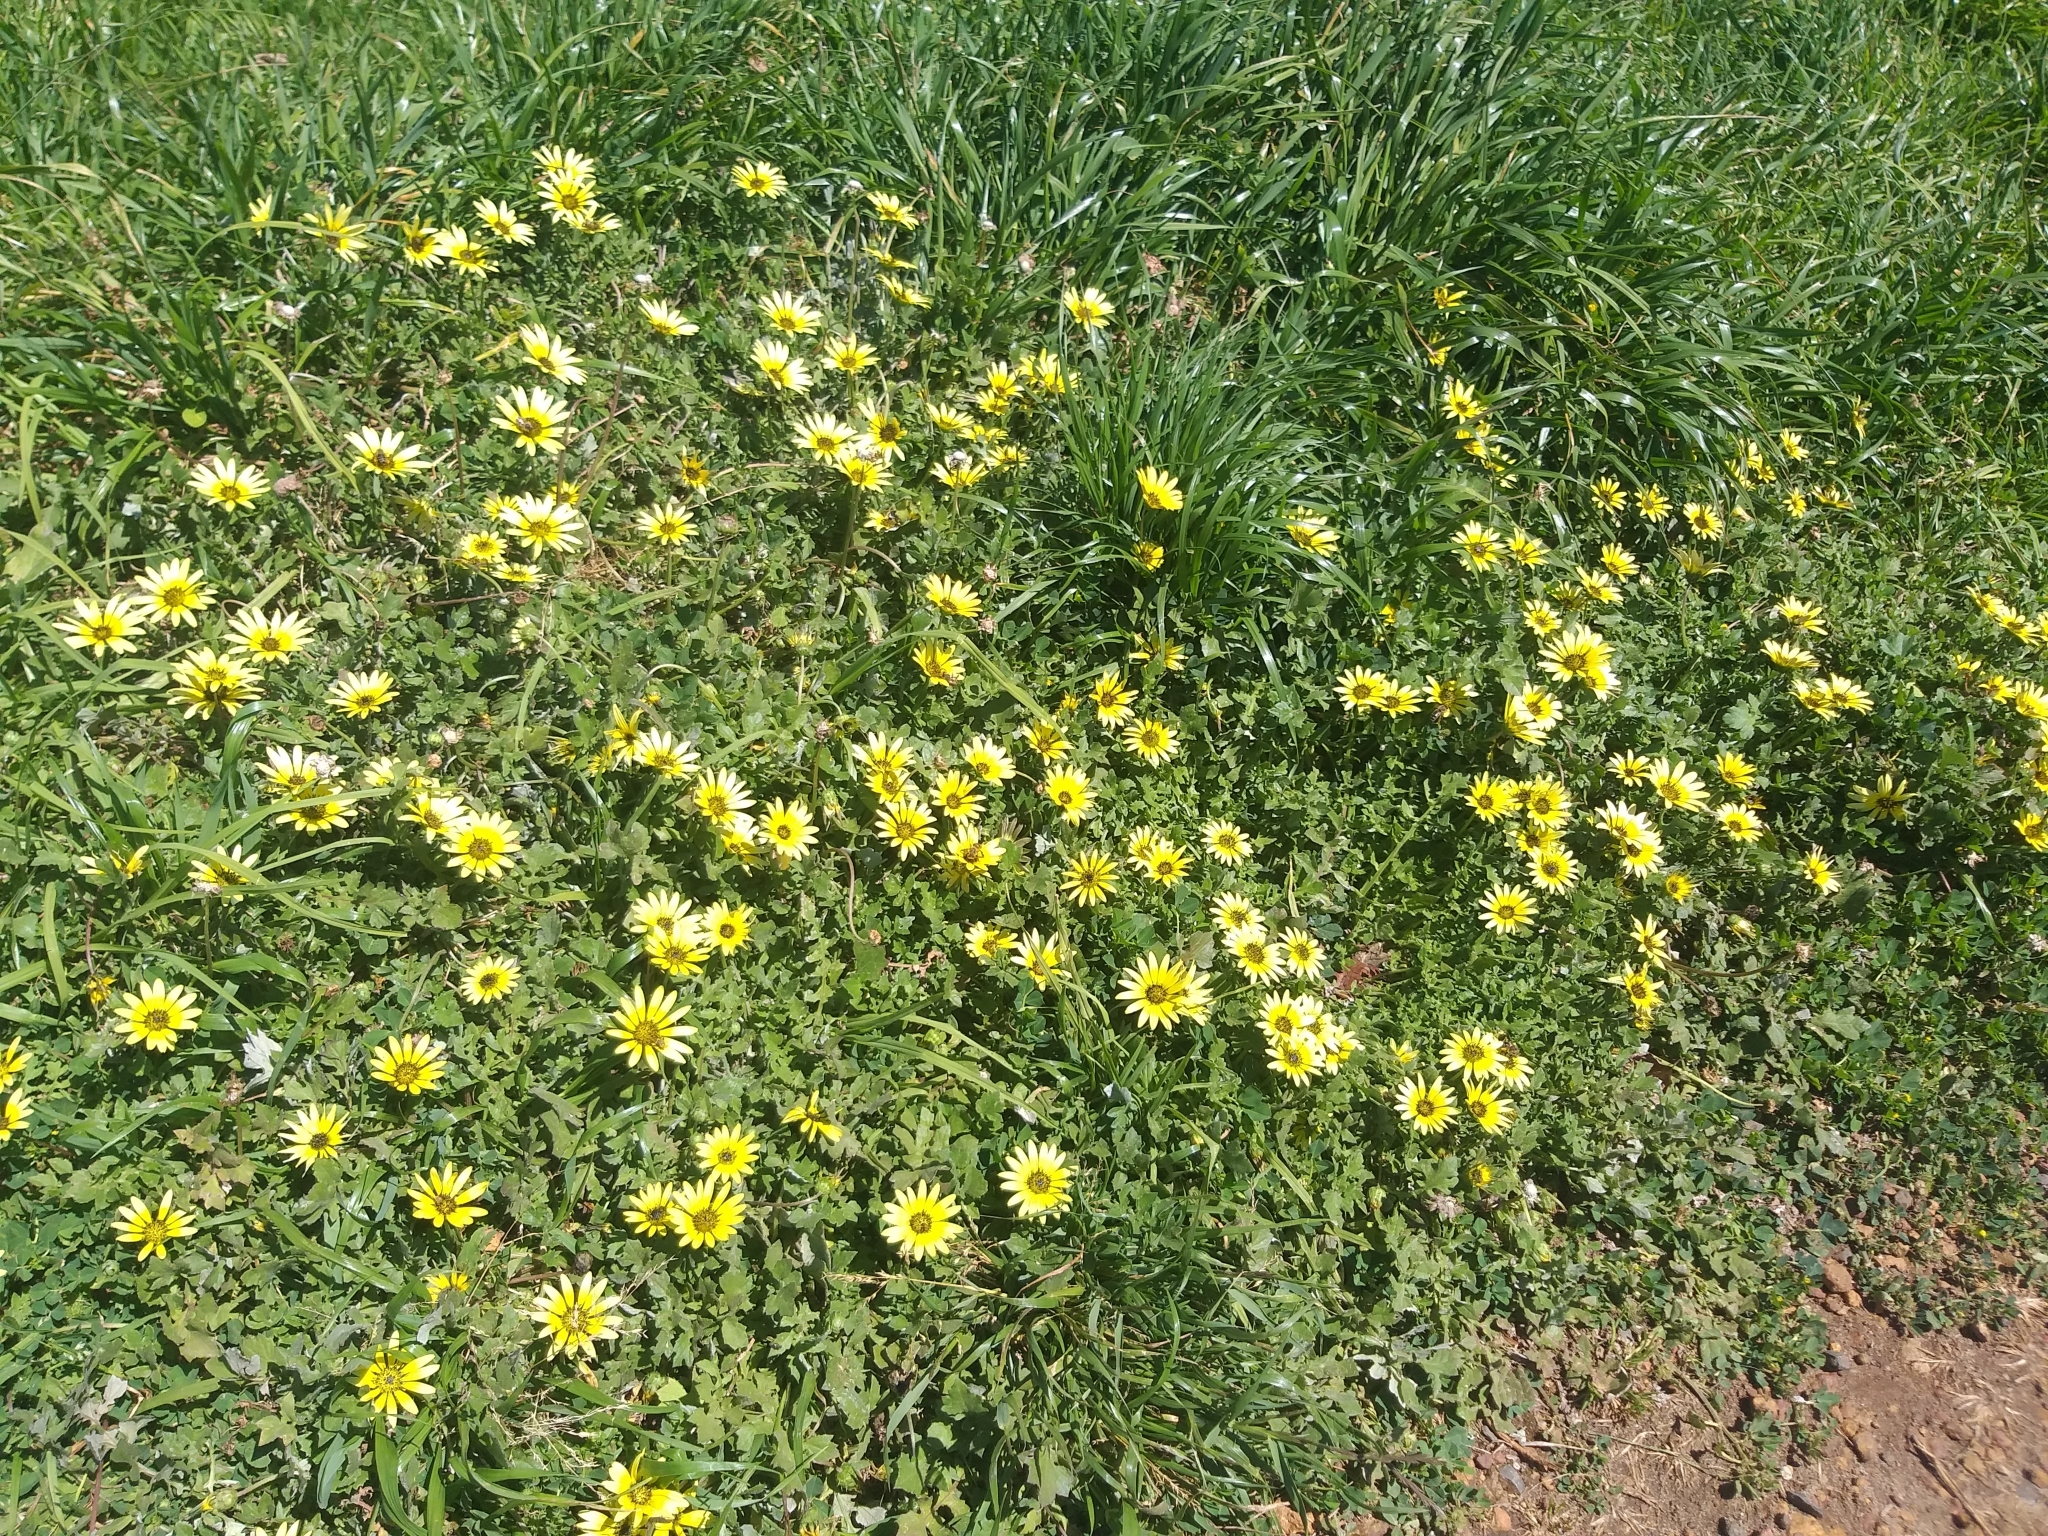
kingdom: Plantae
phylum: Tracheophyta
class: Magnoliopsida
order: Asterales
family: Asteraceae
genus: Arctotheca
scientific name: Arctotheca calendula
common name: Capeweed
